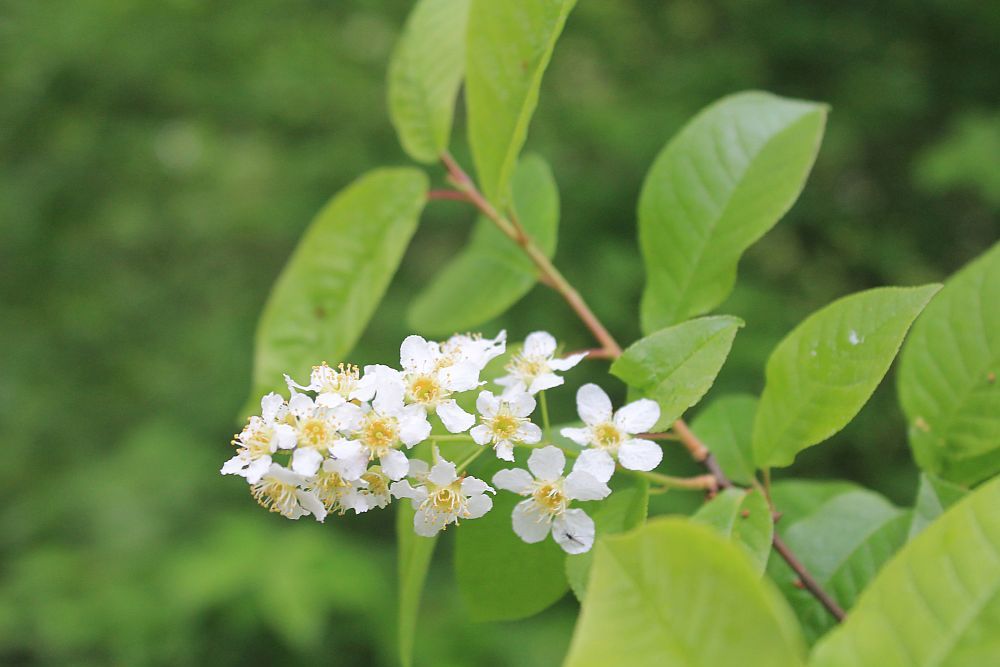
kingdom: Plantae
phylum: Tracheophyta
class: Magnoliopsida
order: Rosales
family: Rosaceae
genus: Prunus
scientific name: Prunus padus
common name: Bird cherry
